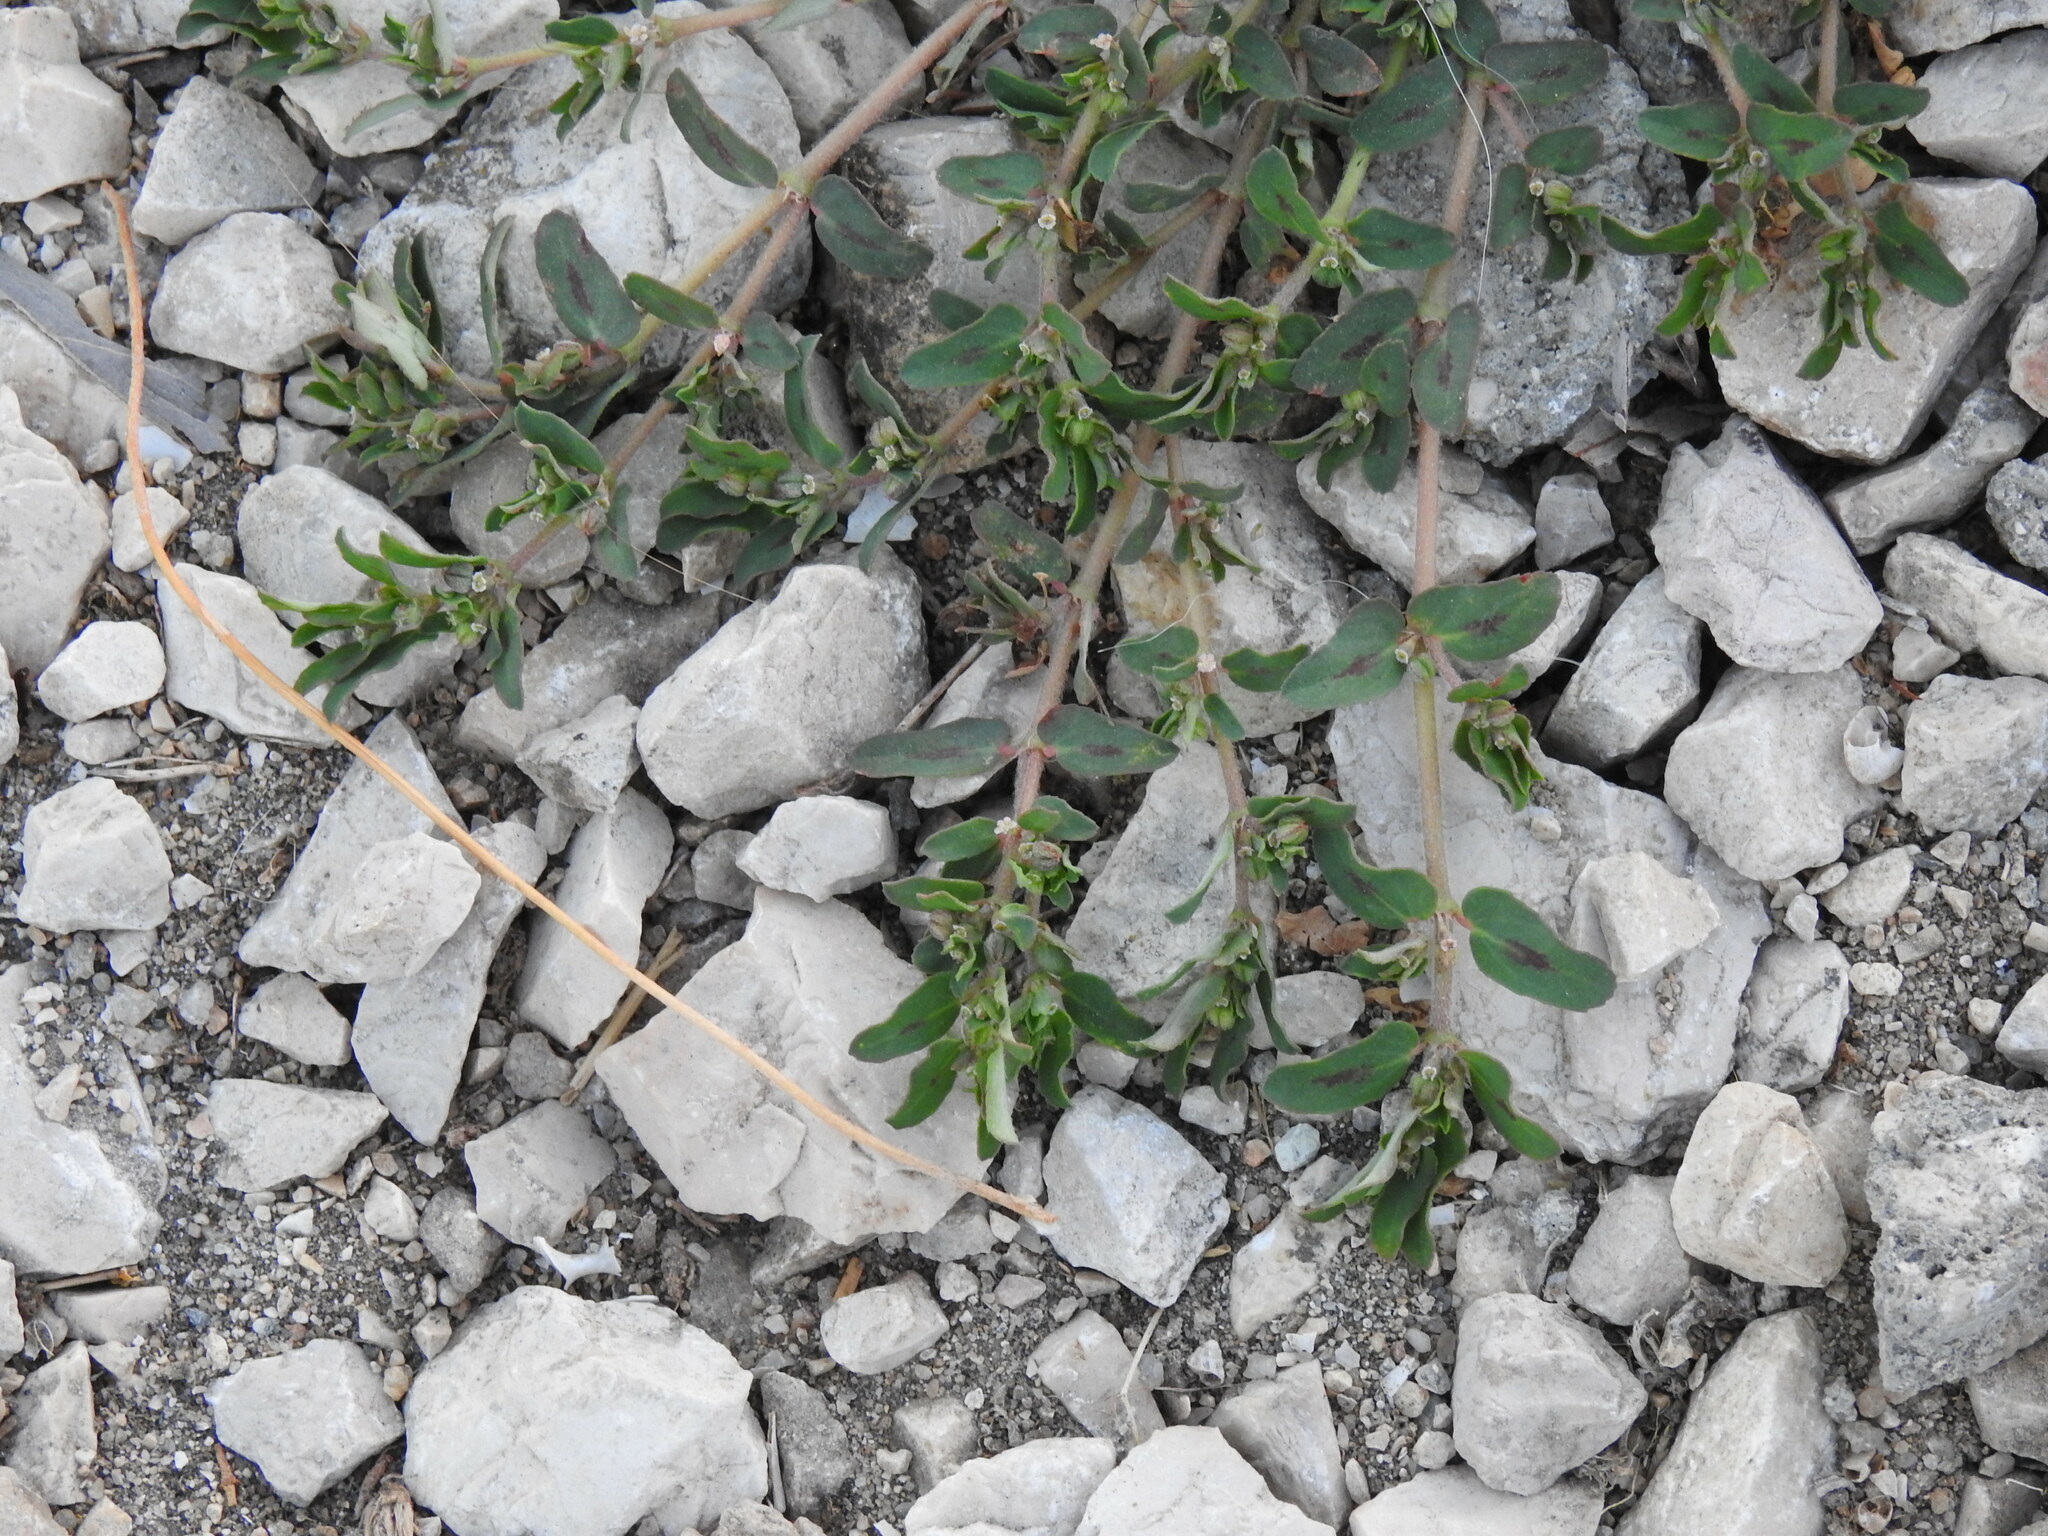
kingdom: Plantae
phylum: Tracheophyta
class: Magnoliopsida
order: Malpighiales
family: Euphorbiaceae
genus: Euphorbia
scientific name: Euphorbia maculata
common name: Spotted spurge
